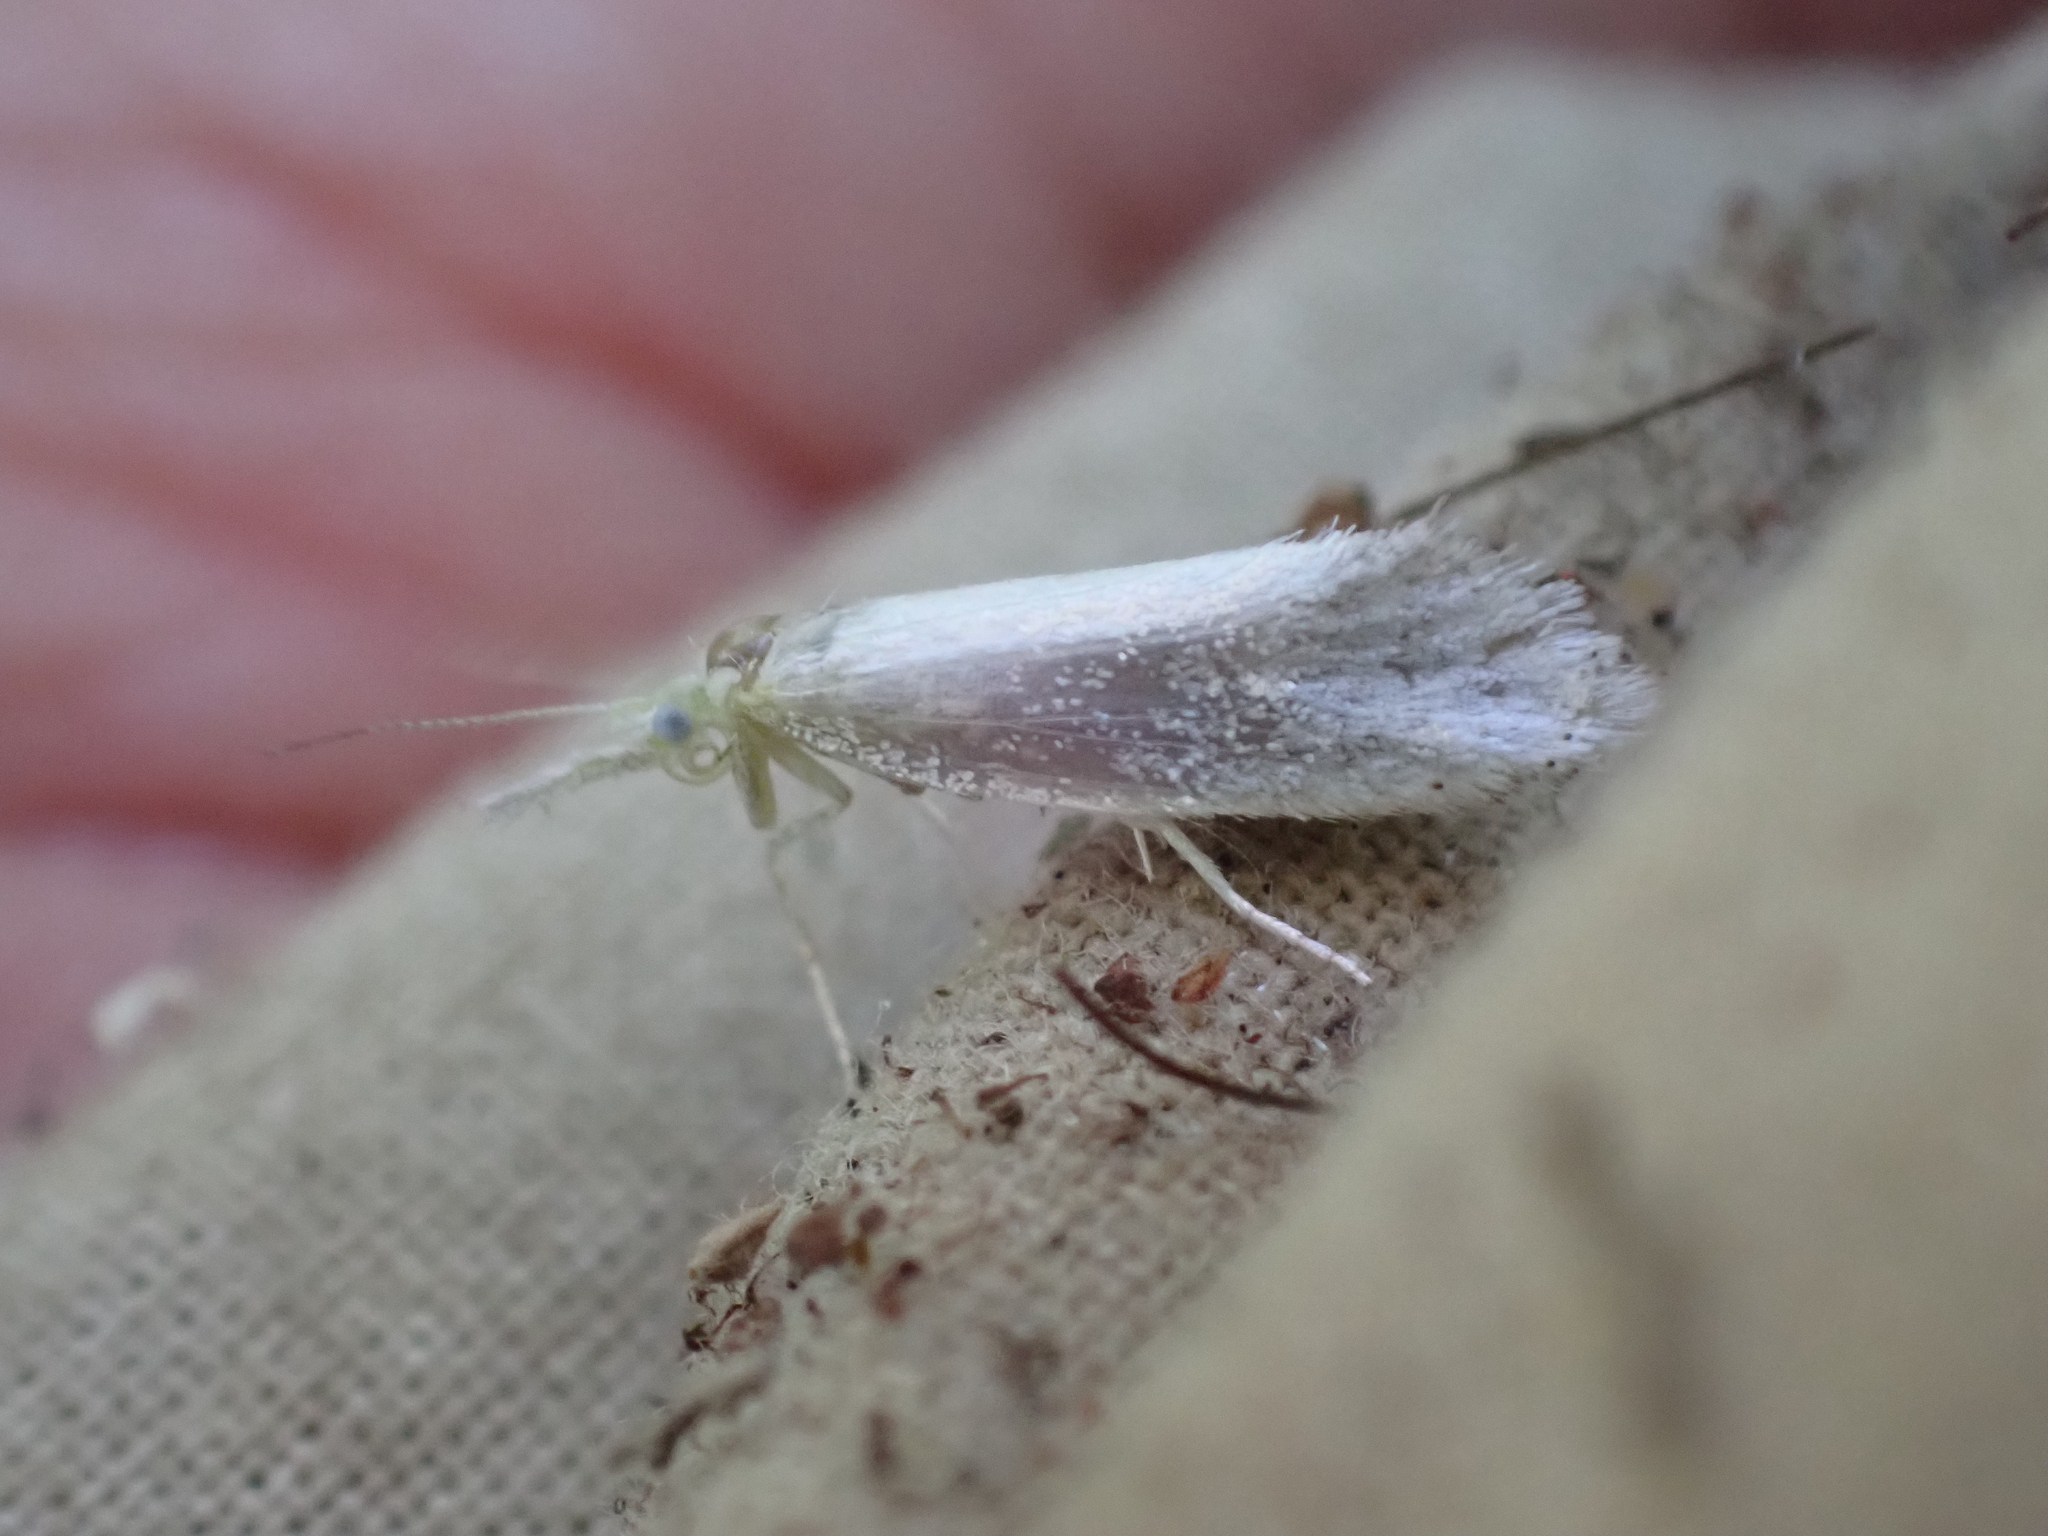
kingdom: Animalia
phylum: Arthropoda
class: Insecta
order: Lepidoptera
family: Ypsolophidae
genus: Euceratia
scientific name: Euceratia castella
